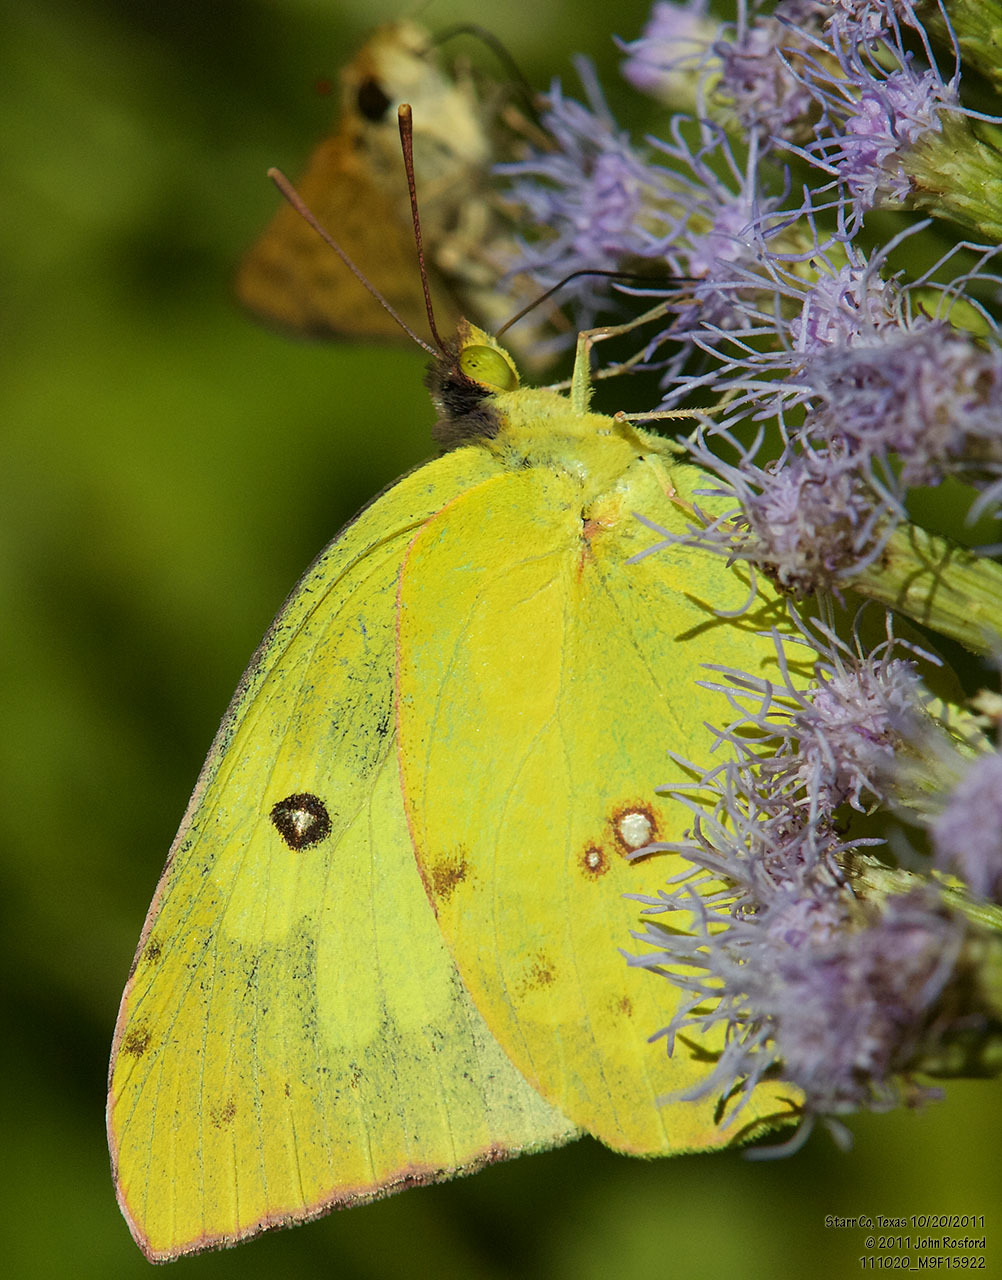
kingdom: Animalia
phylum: Arthropoda
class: Insecta
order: Lepidoptera
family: Pieridae
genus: Zerene
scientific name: Zerene cesonia
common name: Southern dogface
